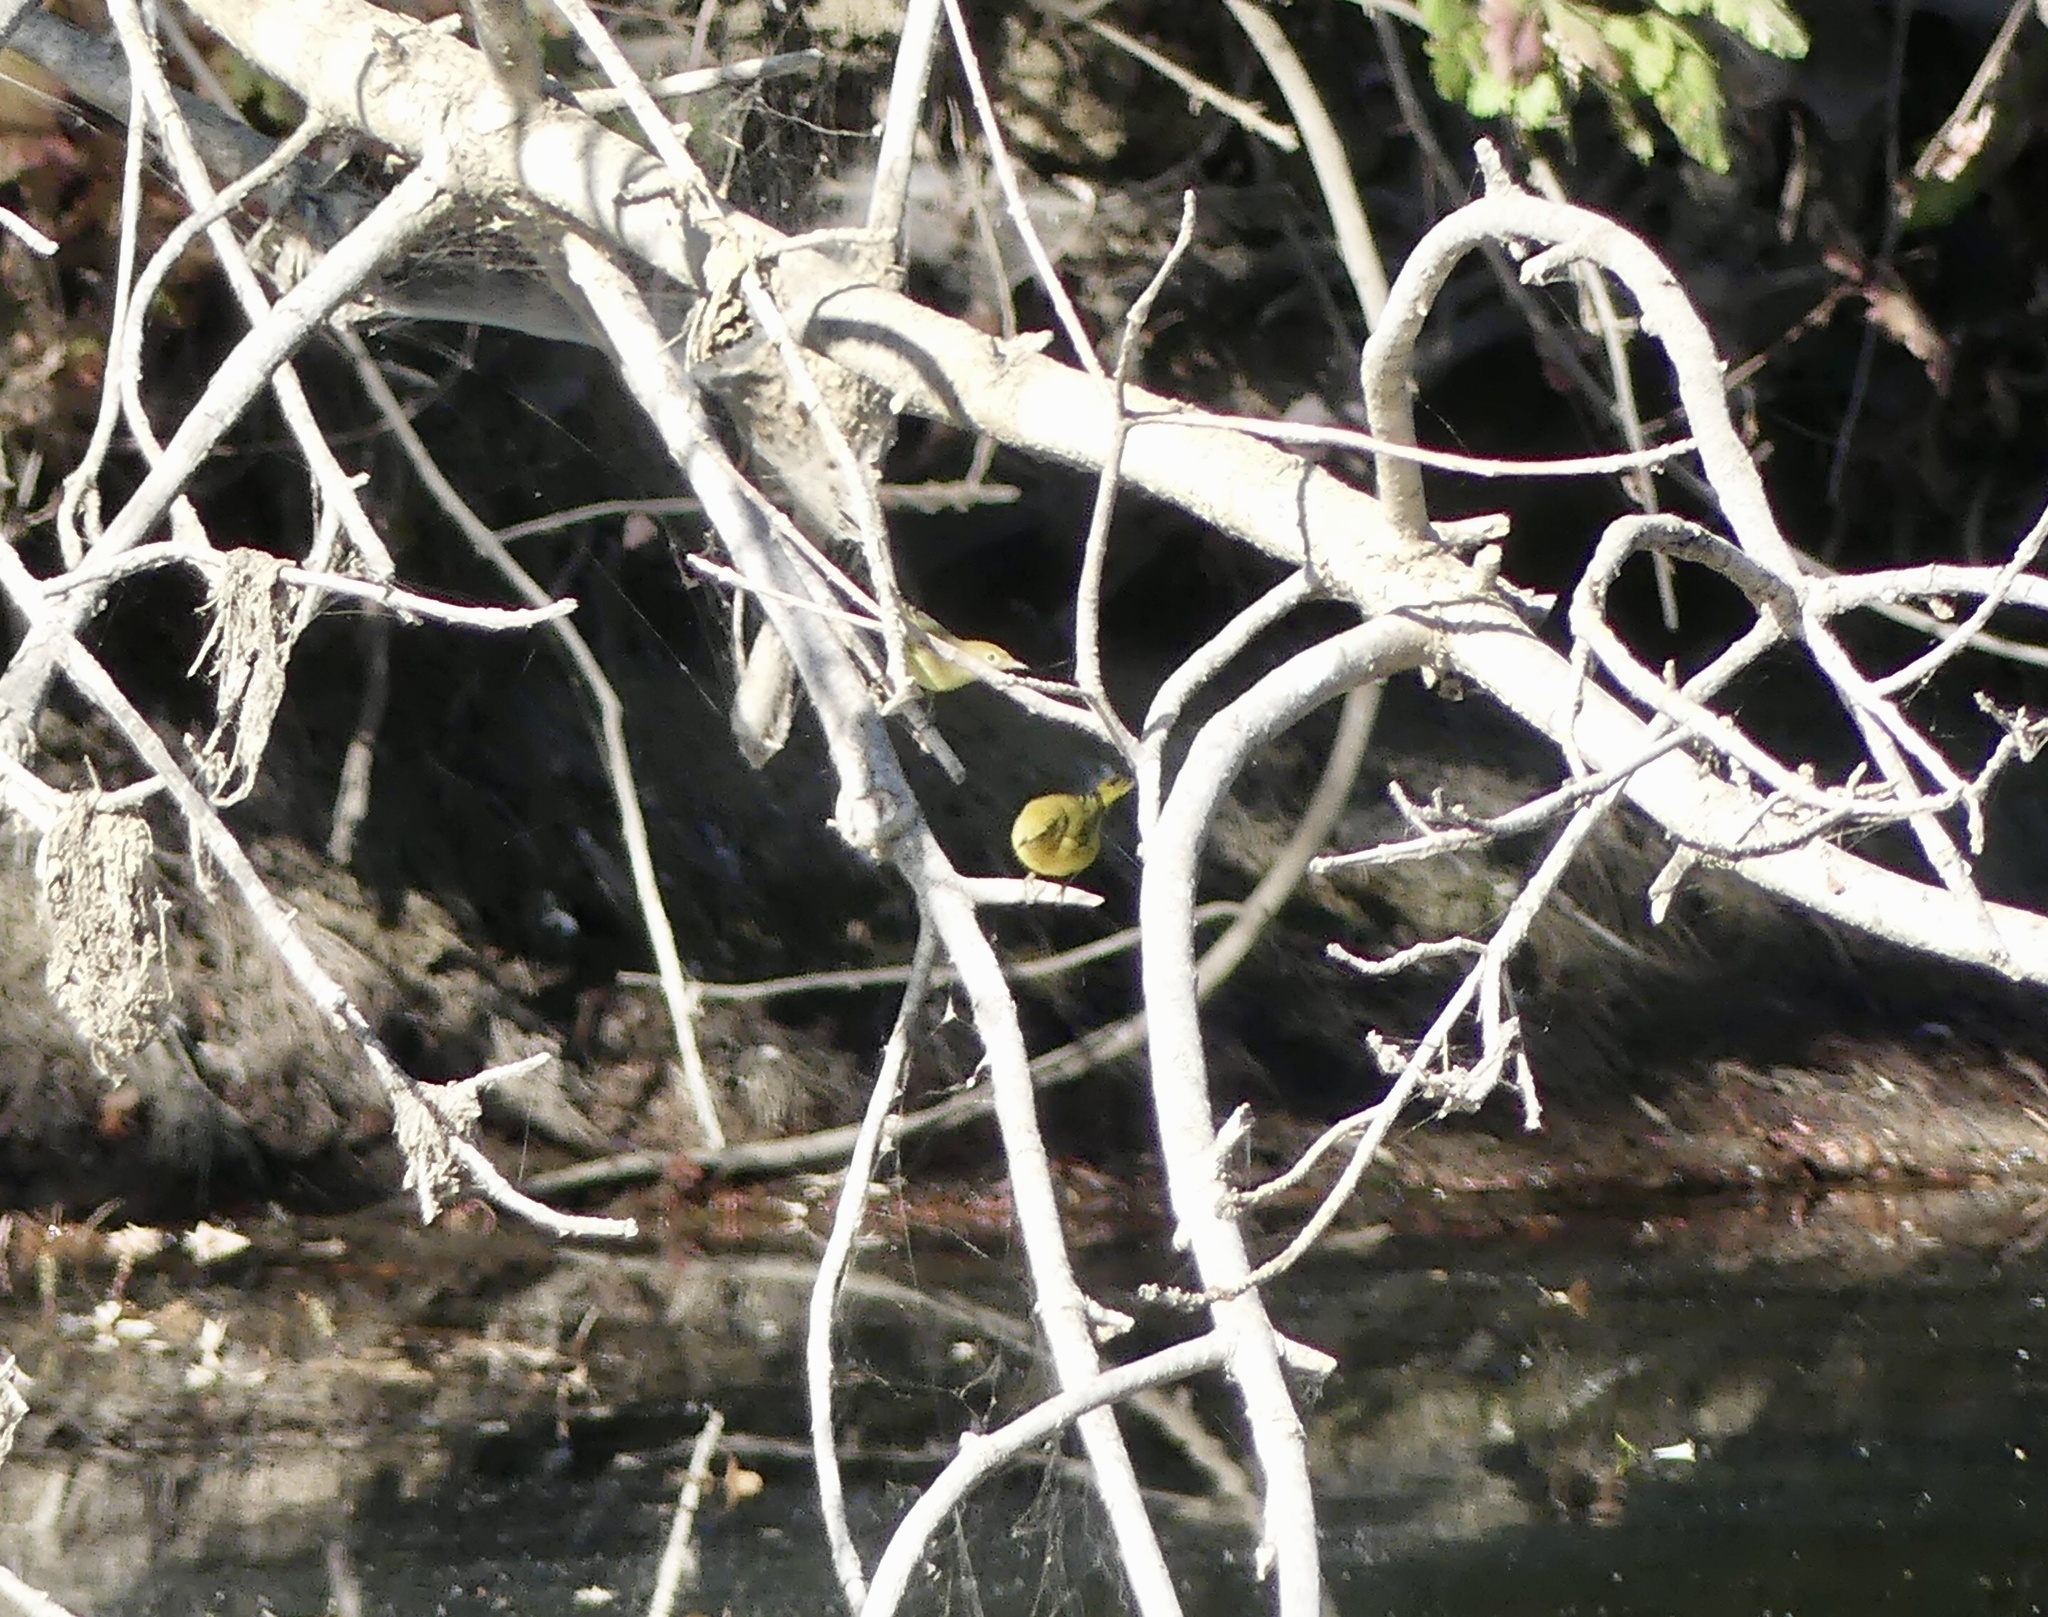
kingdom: Animalia
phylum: Chordata
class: Aves
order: Passeriformes
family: Parulidae
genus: Setophaga
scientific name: Setophaga petechia
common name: Yellow warbler
